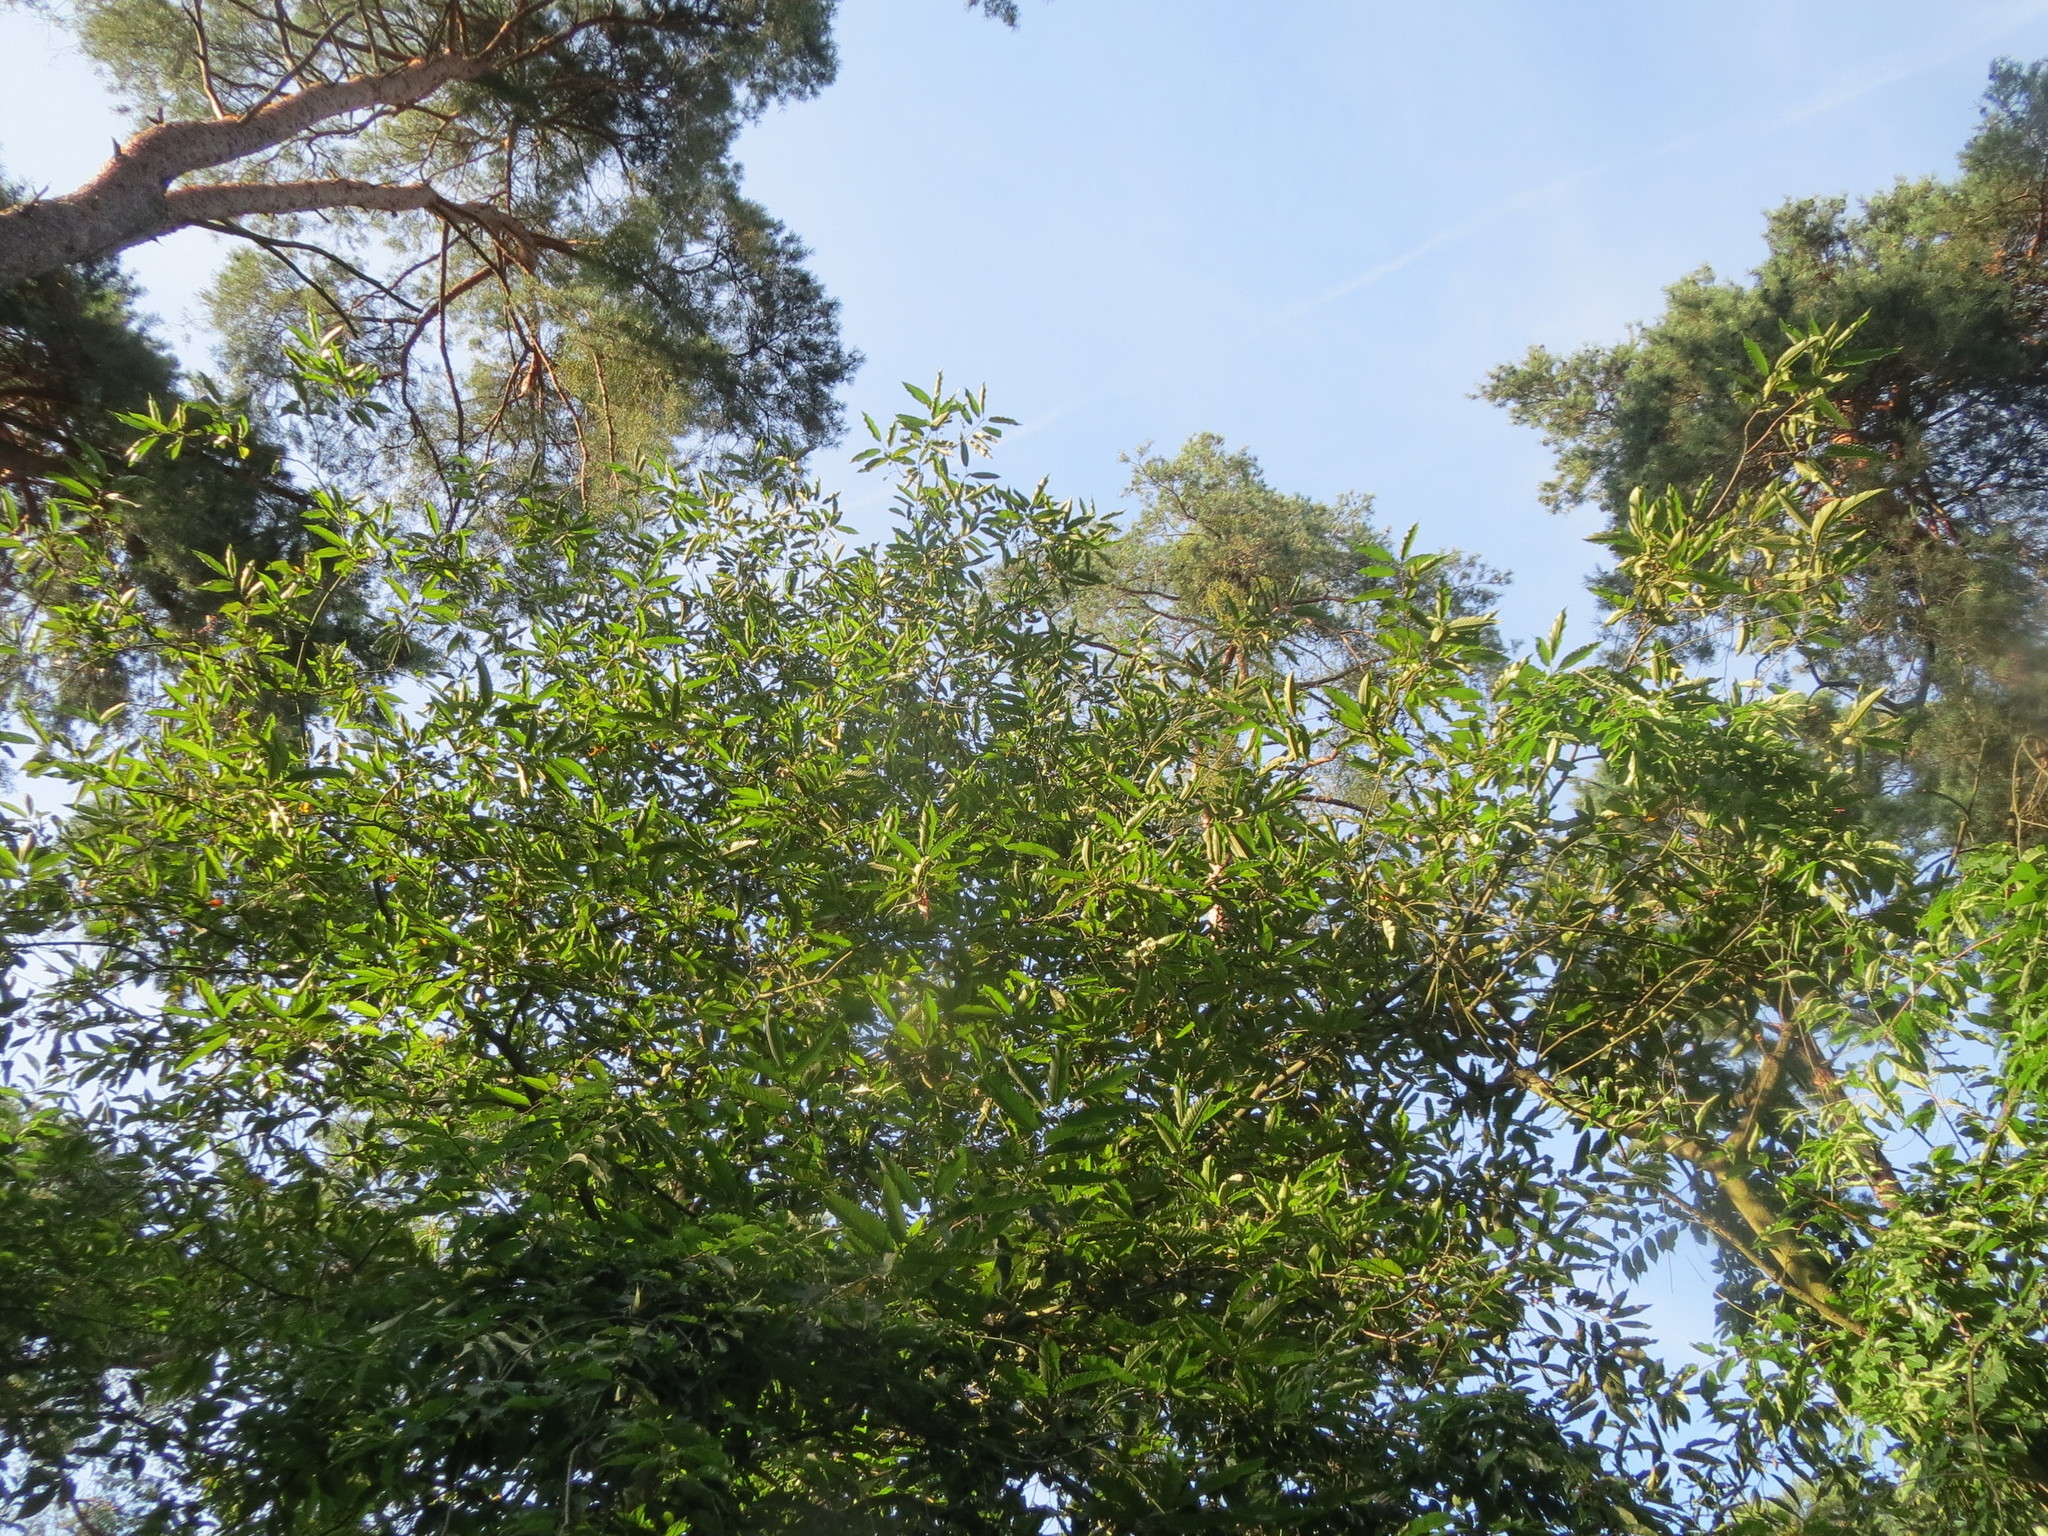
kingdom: Plantae
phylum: Tracheophyta
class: Magnoliopsida
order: Fagales
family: Fagaceae
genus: Castanea
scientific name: Castanea sativa
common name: Sweet chestnut
